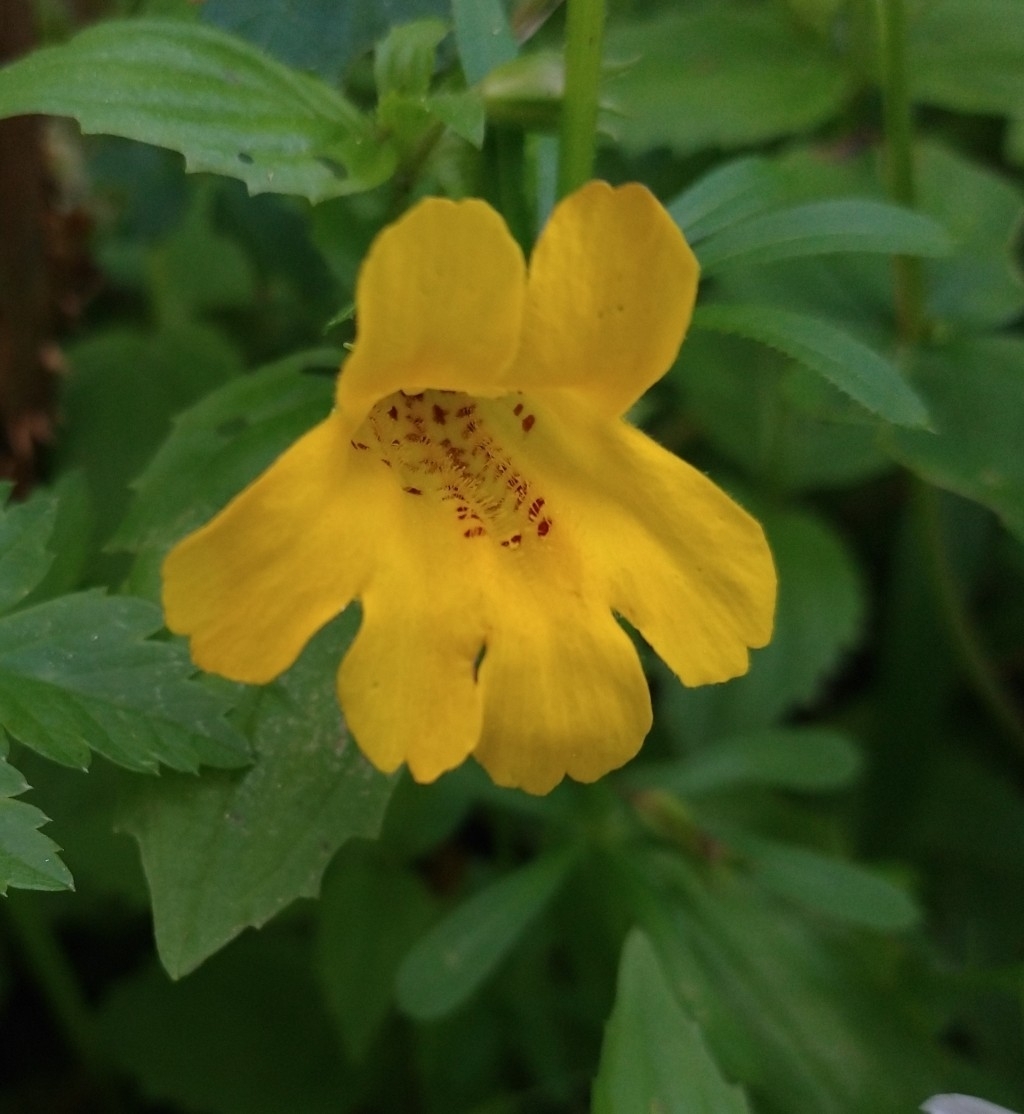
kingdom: Plantae
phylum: Tracheophyta
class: Magnoliopsida
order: Lamiales
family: Phrymaceae
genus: Erythranthe
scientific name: Erythranthe dentata
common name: Coastal monkeyflower
